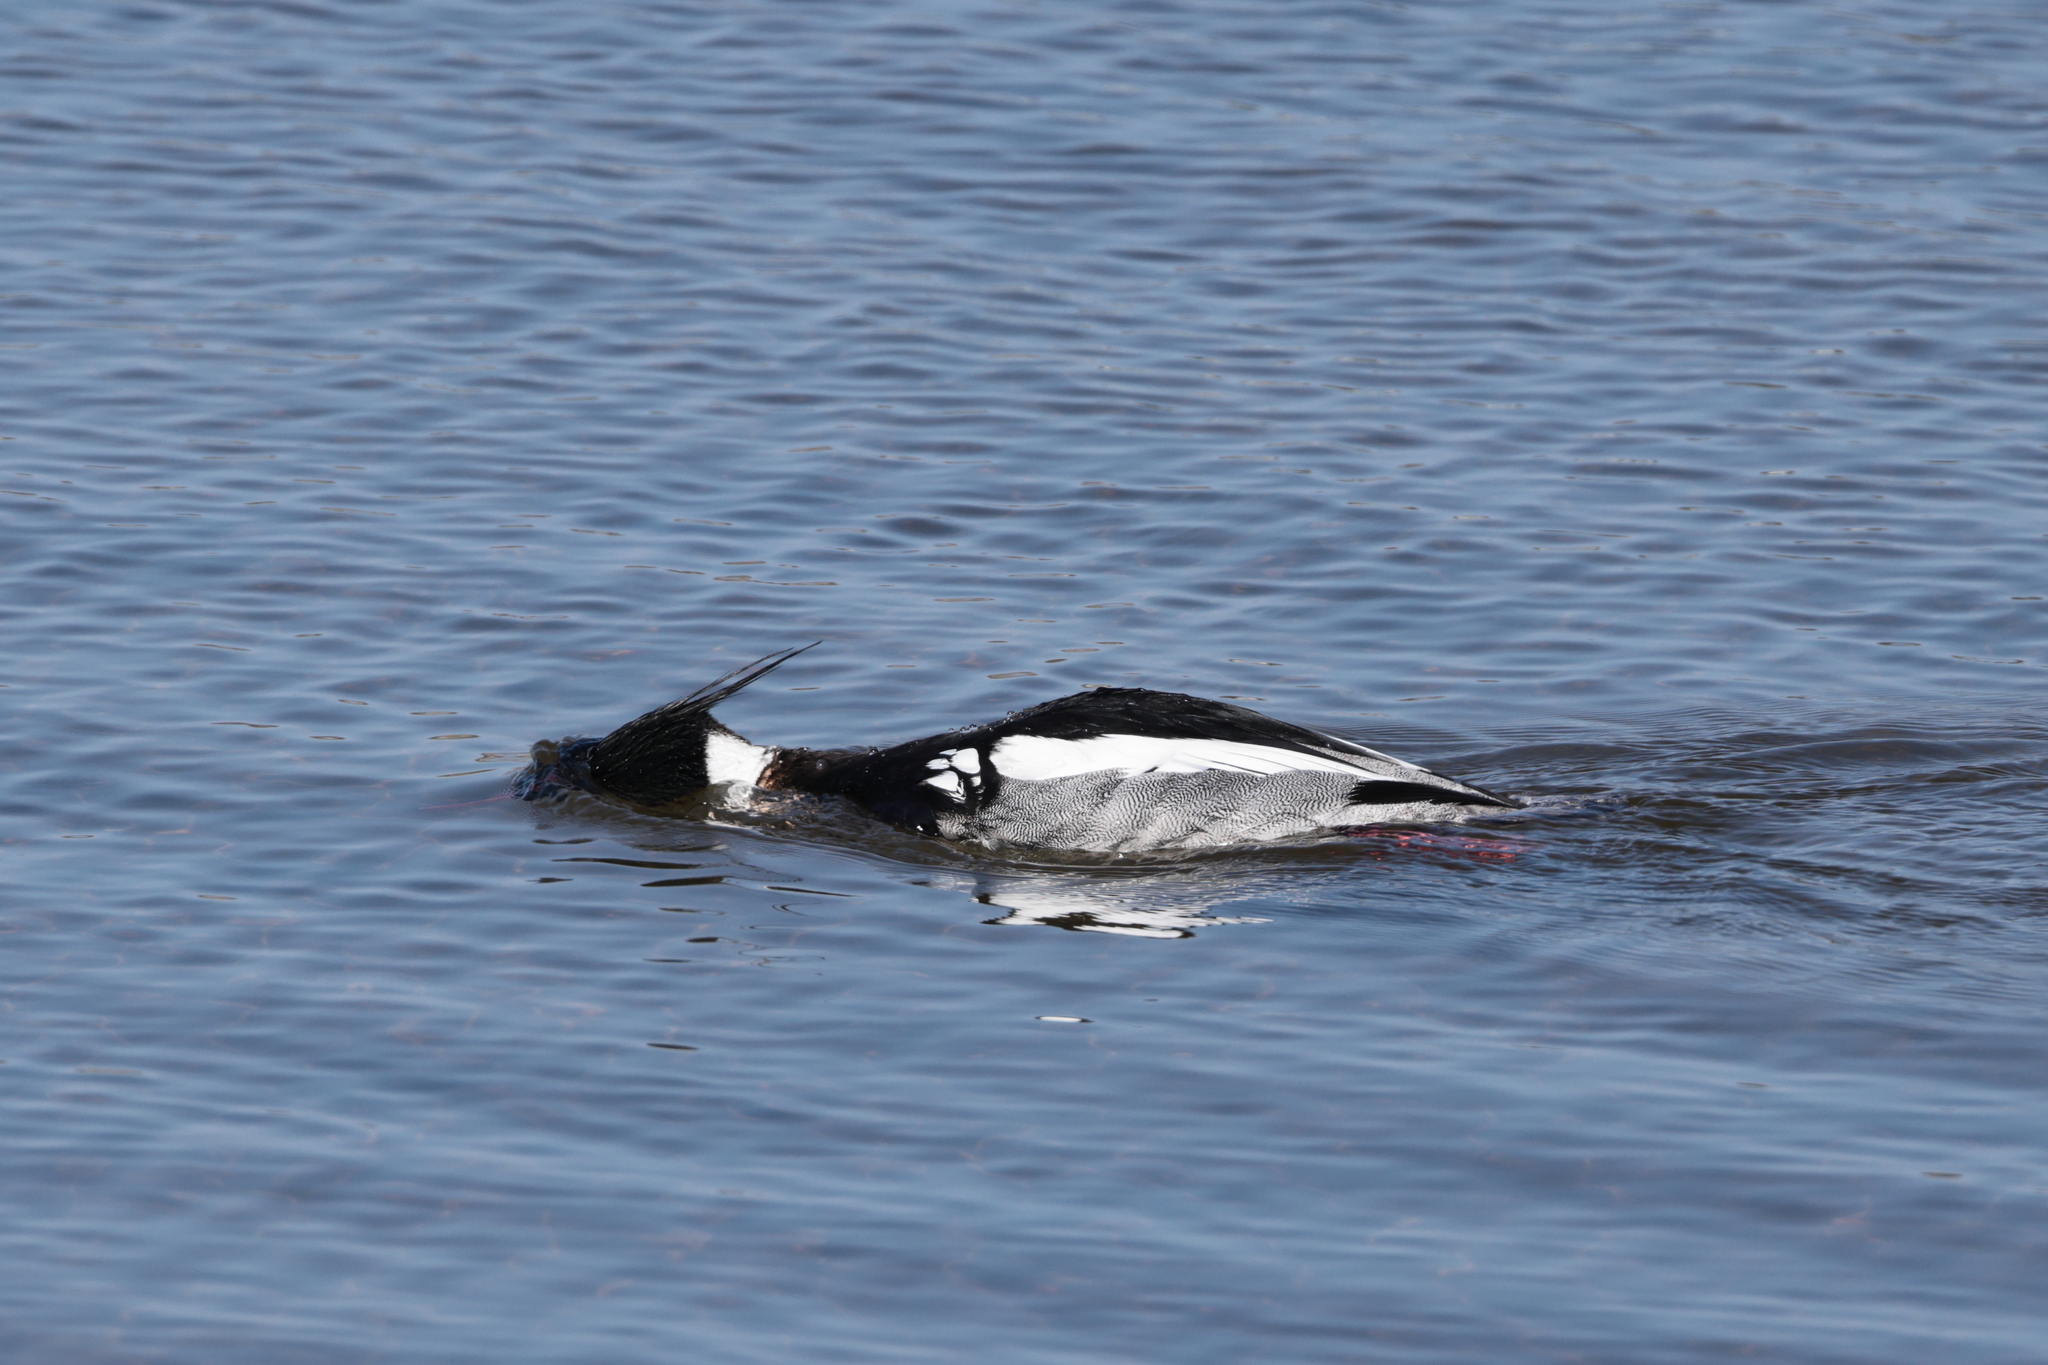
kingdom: Animalia
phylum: Chordata
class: Aves
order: Anseriformes
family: Anatidae
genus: Mergus
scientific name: Mergus serrator
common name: Red-breasted merganser
